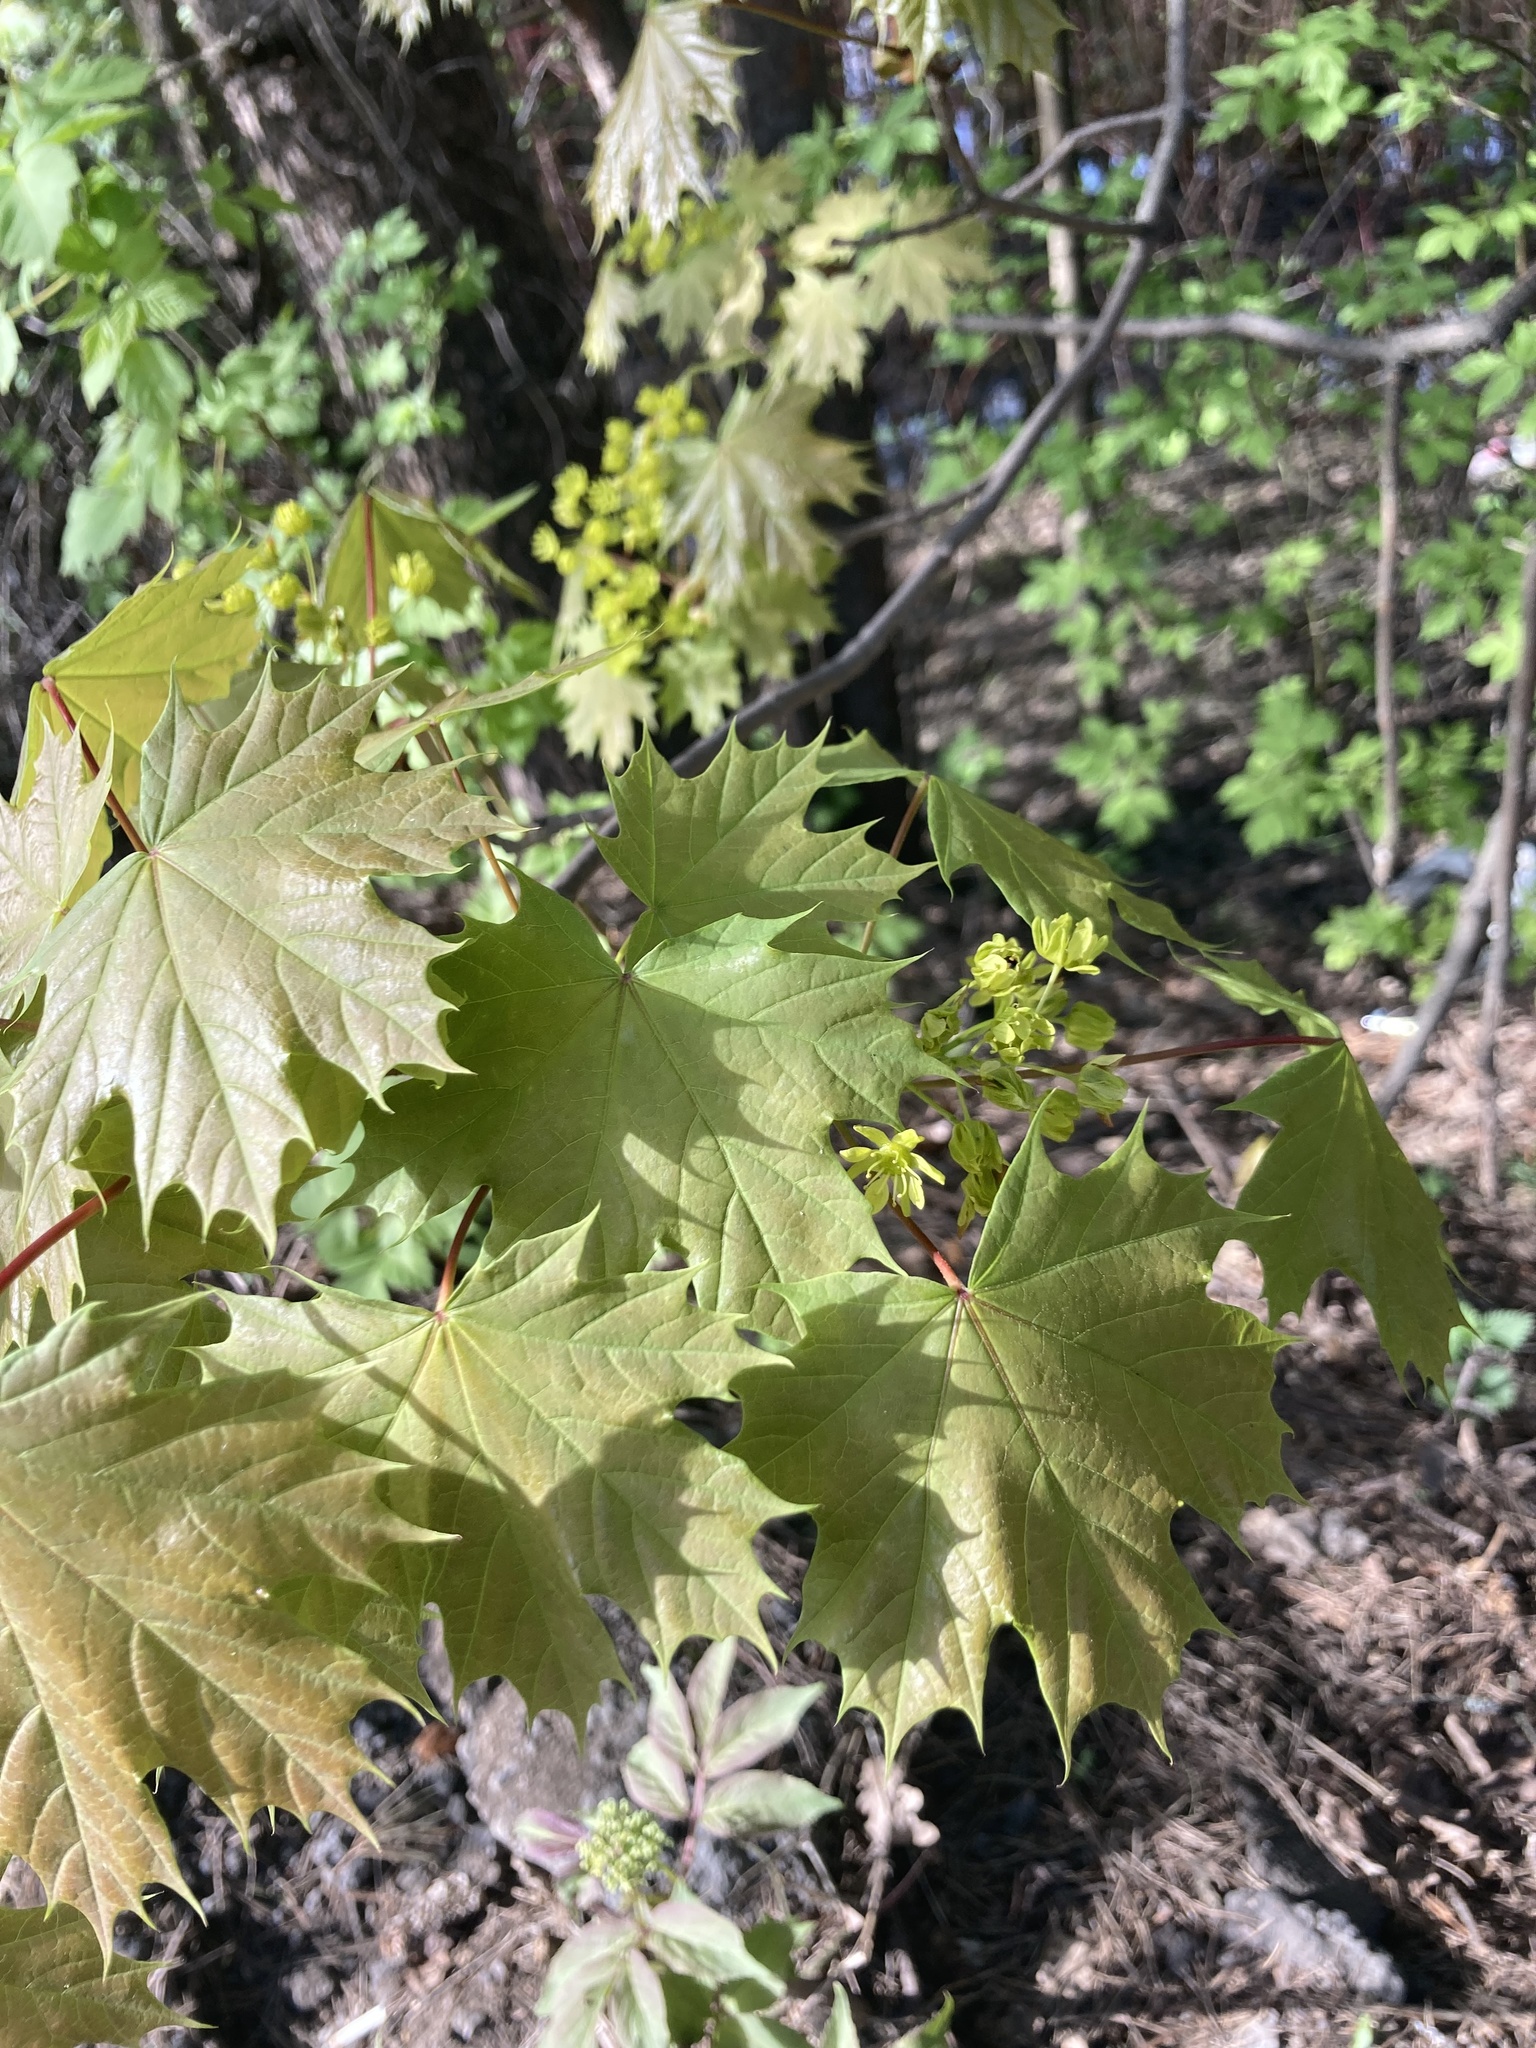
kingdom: Plantae
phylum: Tracheophyta
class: Magnoliopsida
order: Sapindales
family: Sapindaceae
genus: Acer
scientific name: Acer platanoides
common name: Norway maple
